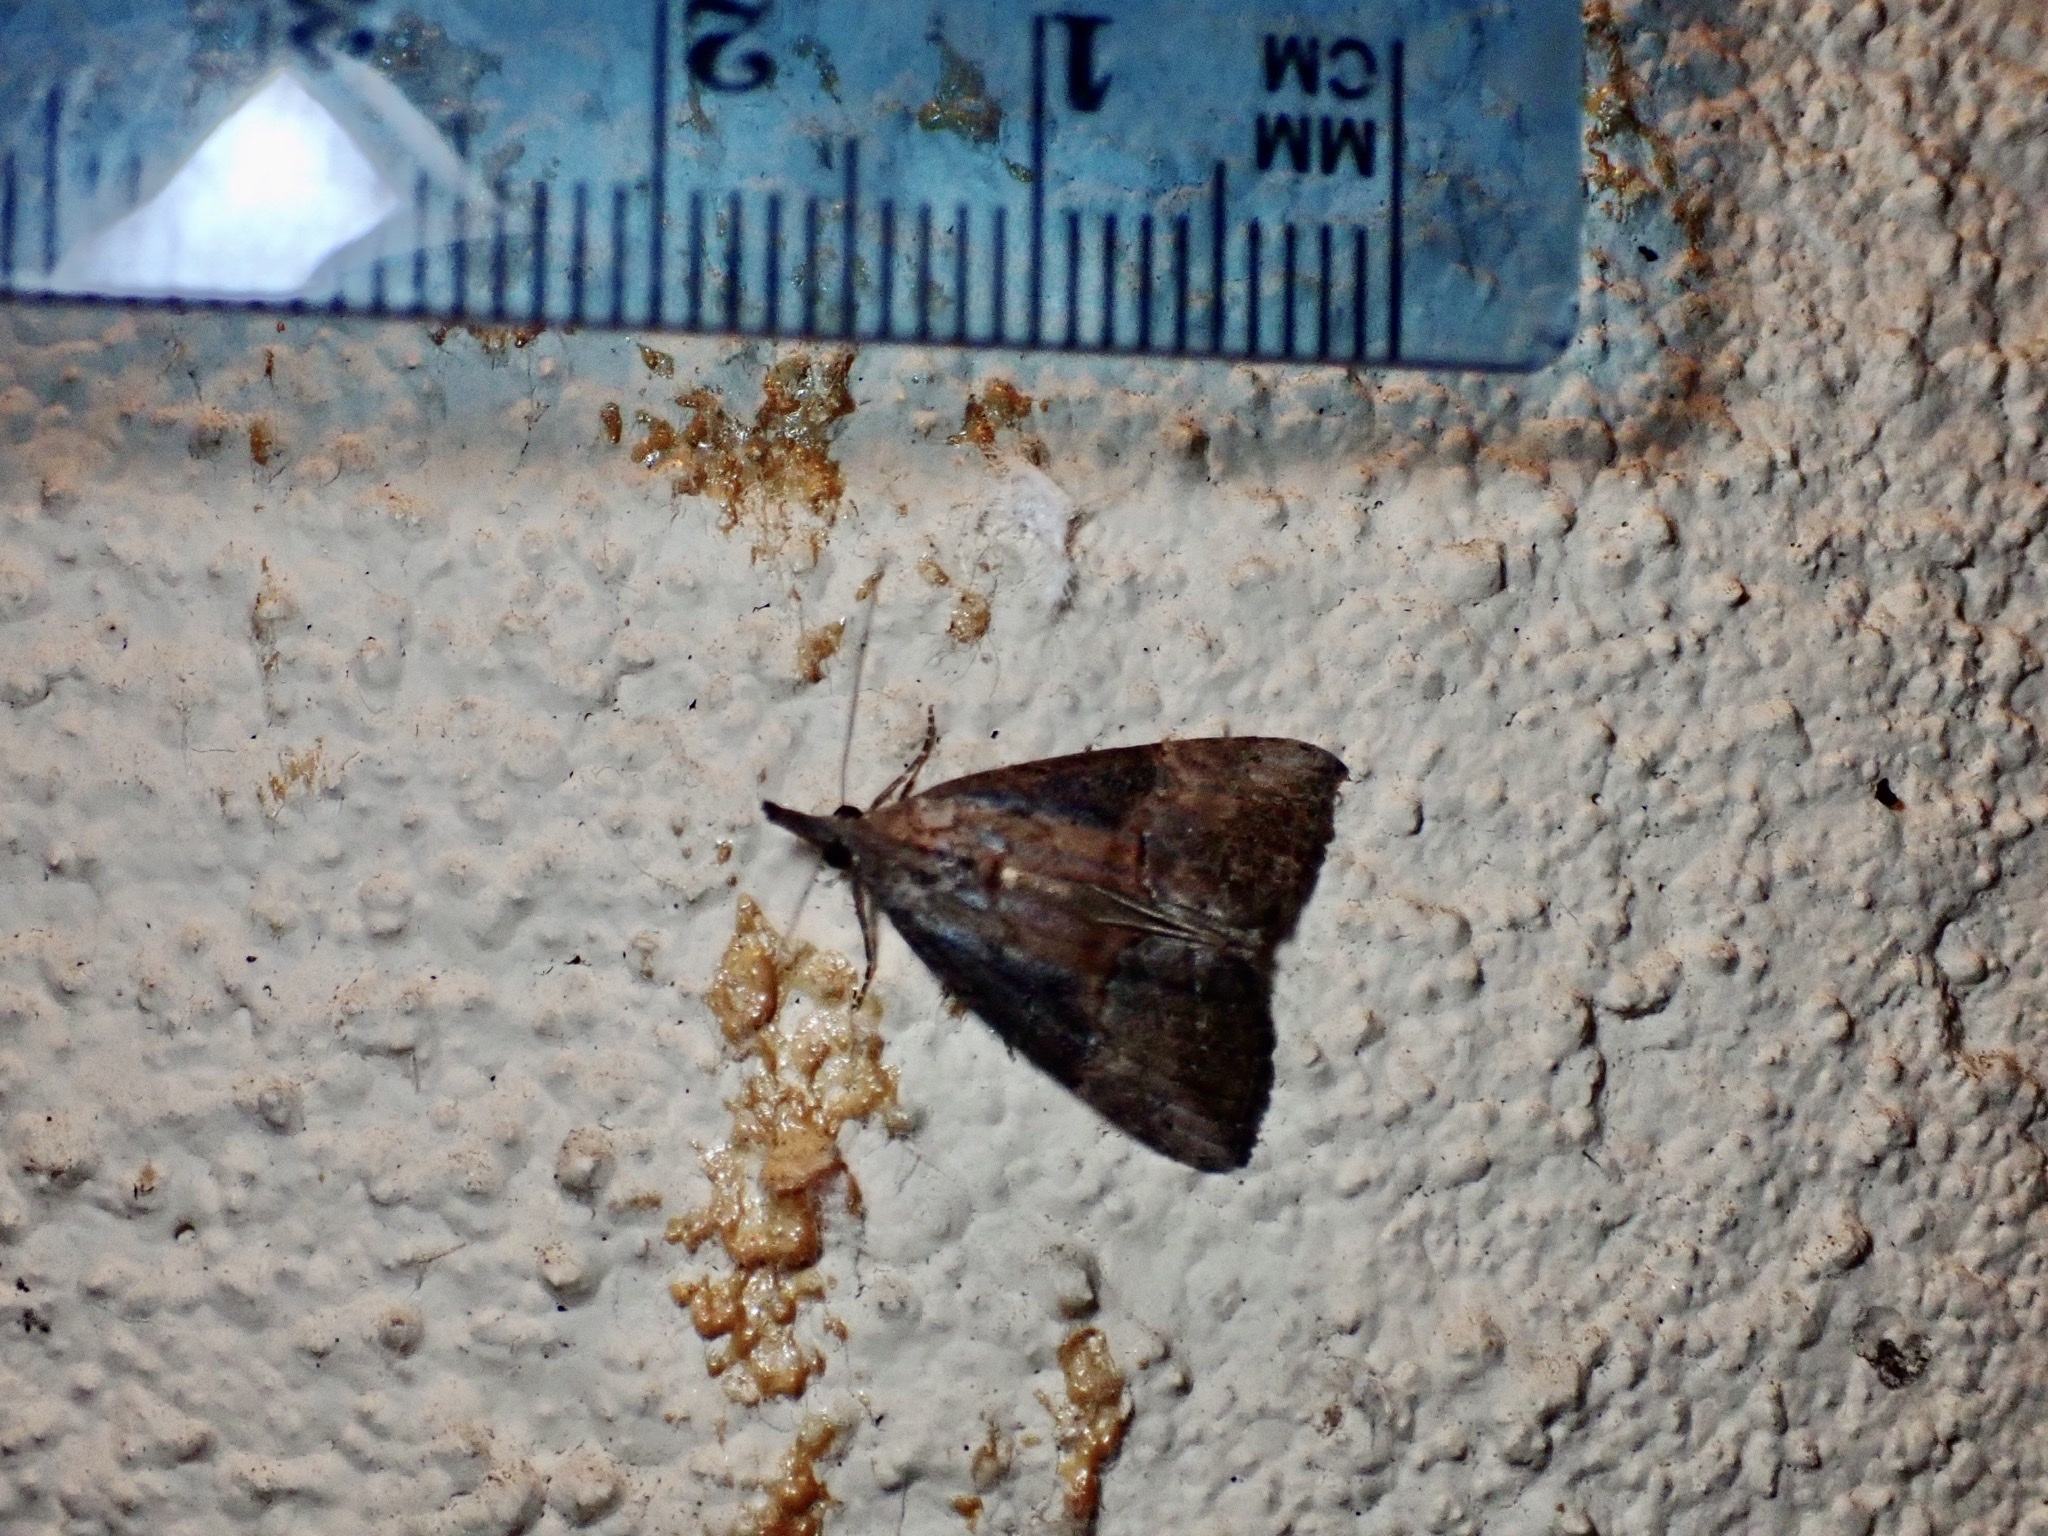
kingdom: Animalia
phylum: Arthropoda
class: Insecta
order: Lepidoptera
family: Erebidae
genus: Hypena
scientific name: Hypena scabra
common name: Green cloverworm
